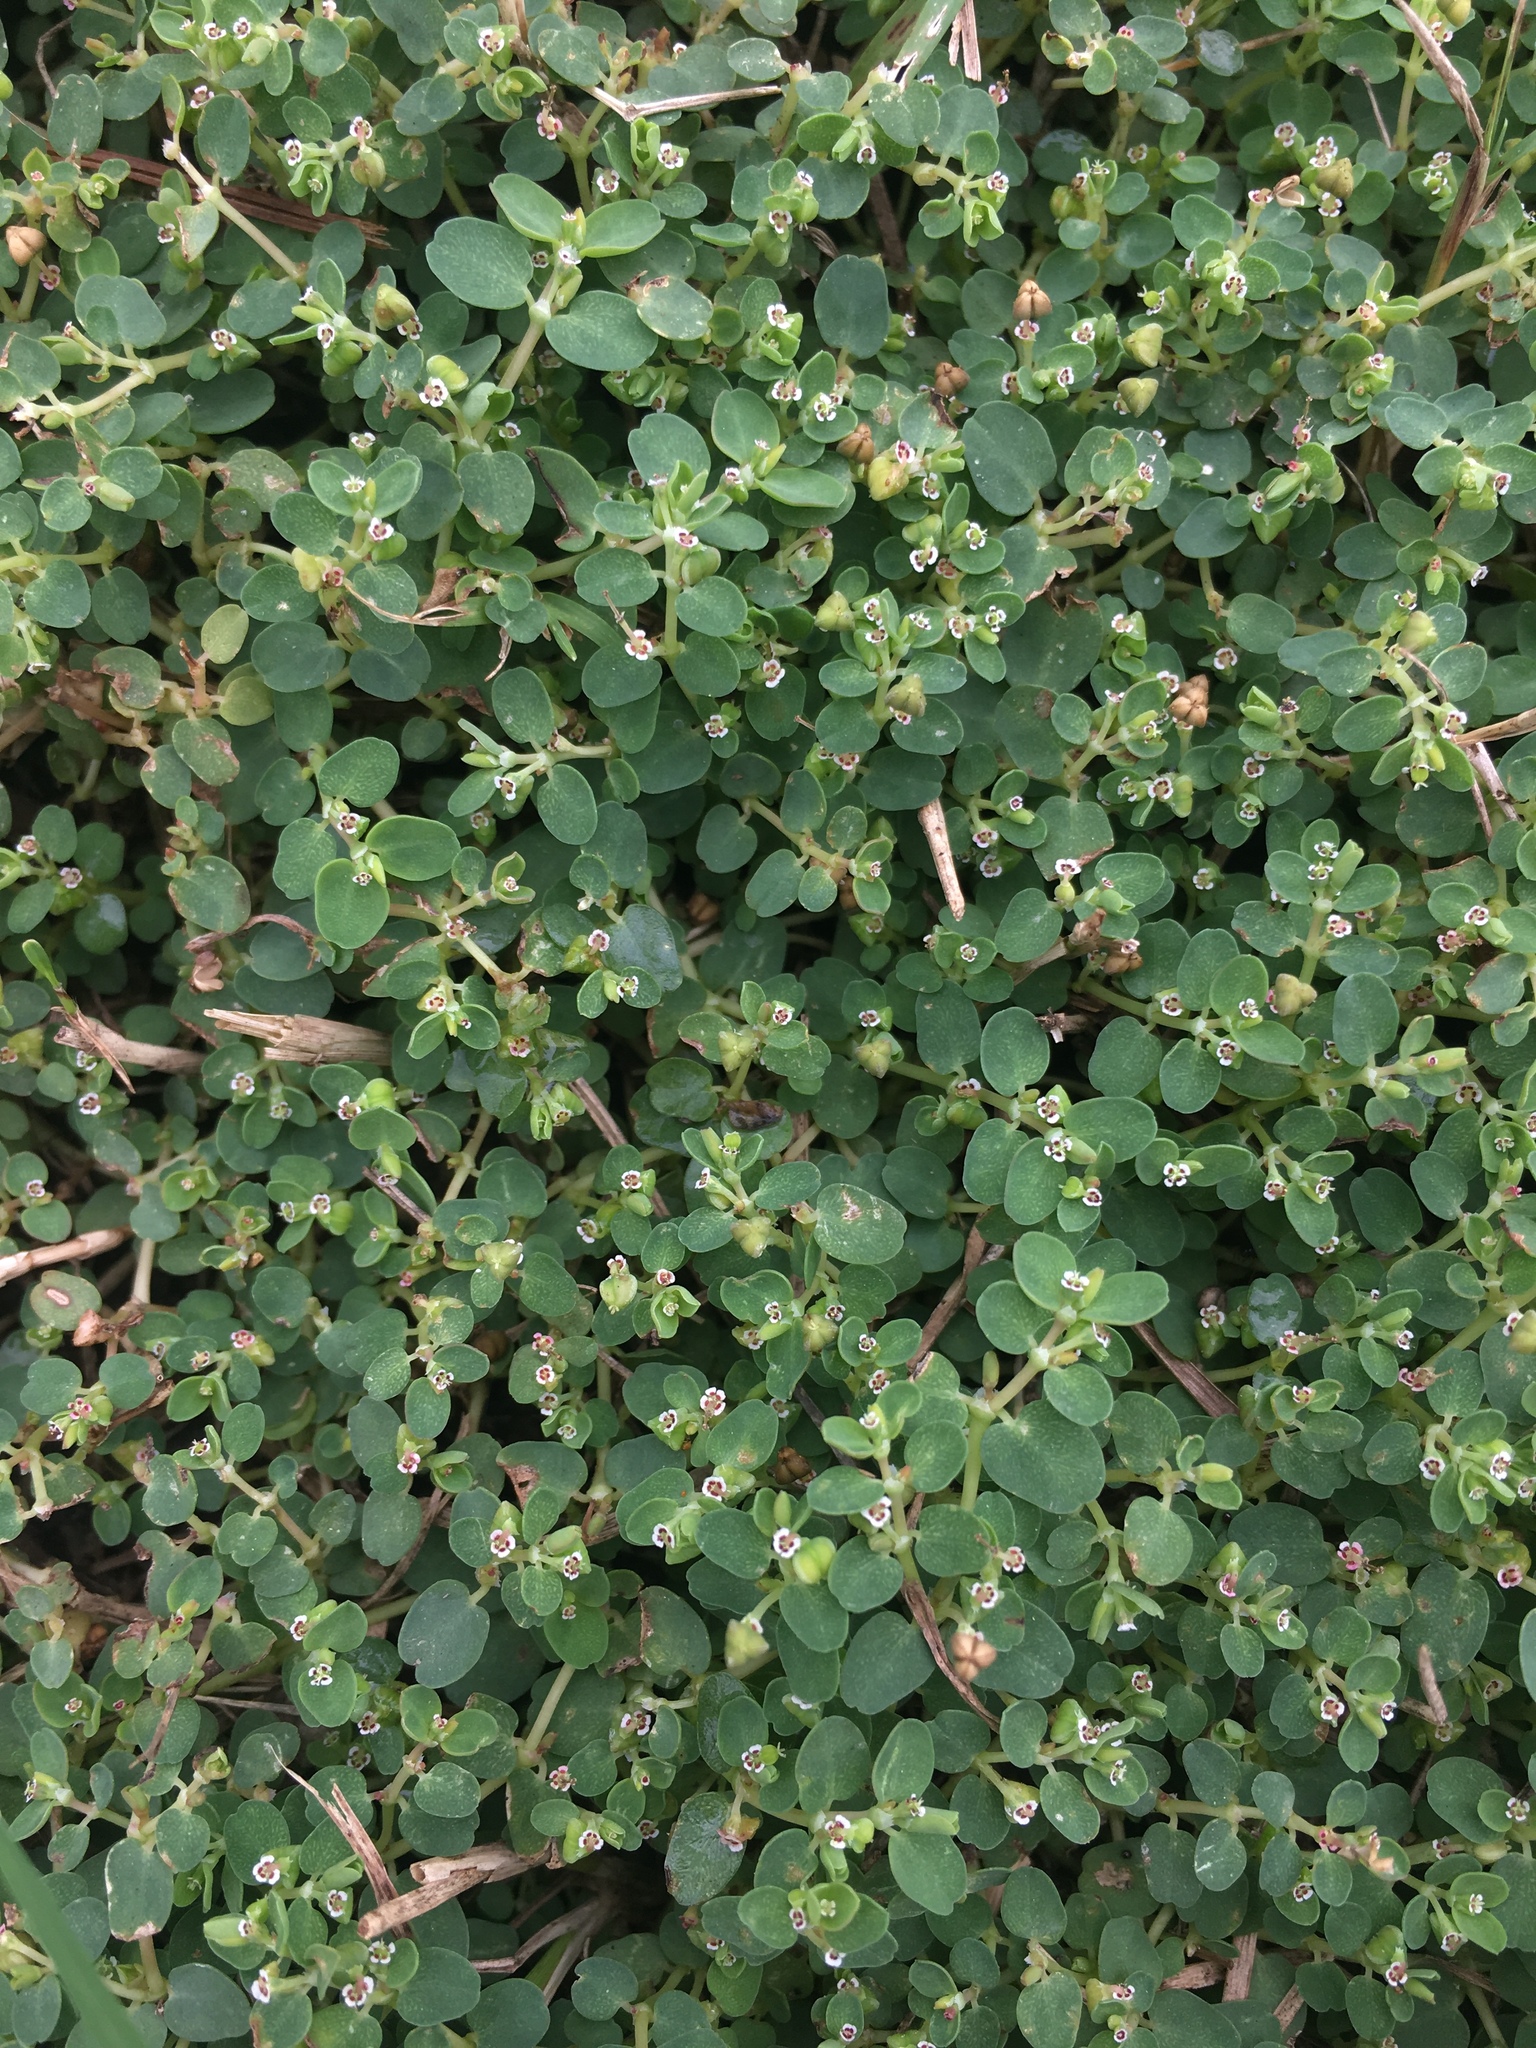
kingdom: Plantae
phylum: Tracheophyta
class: Magnoliopsida
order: Malpighiales
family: Euphorbiaceae
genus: Euphorbia
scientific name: Euphorbia serpens
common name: Matted sandmat
